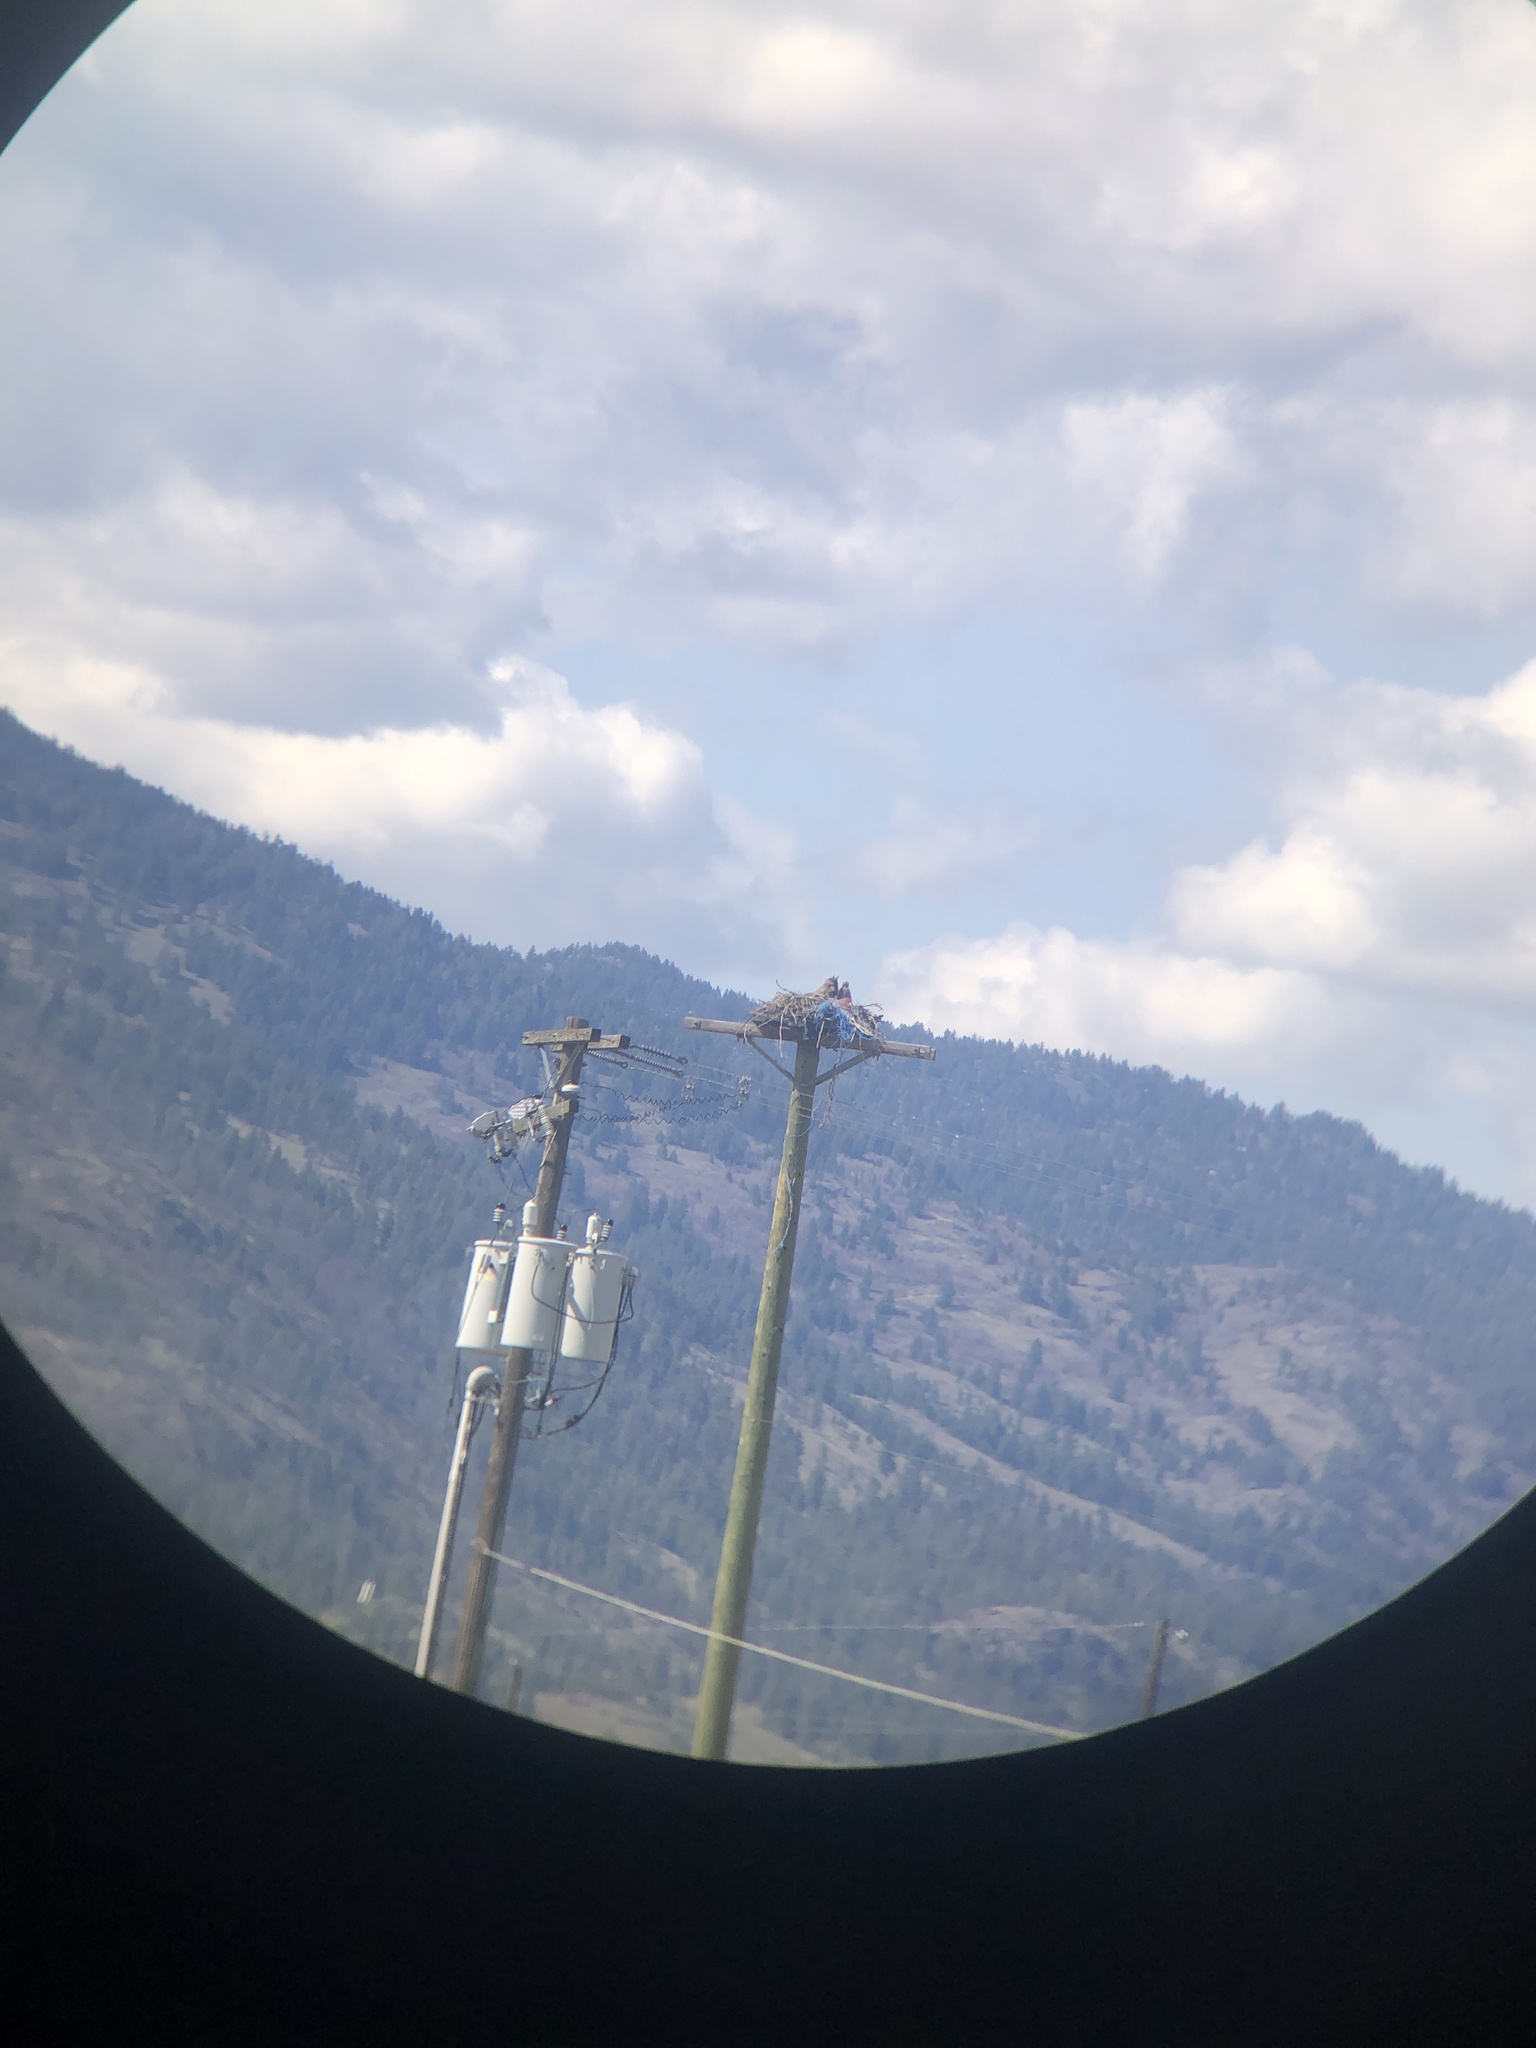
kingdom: Animalia
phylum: Chordata
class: Aves
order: Strigiformes
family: Strigidae
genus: Bubo
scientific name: Bubo virginianus
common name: Great horned owl
